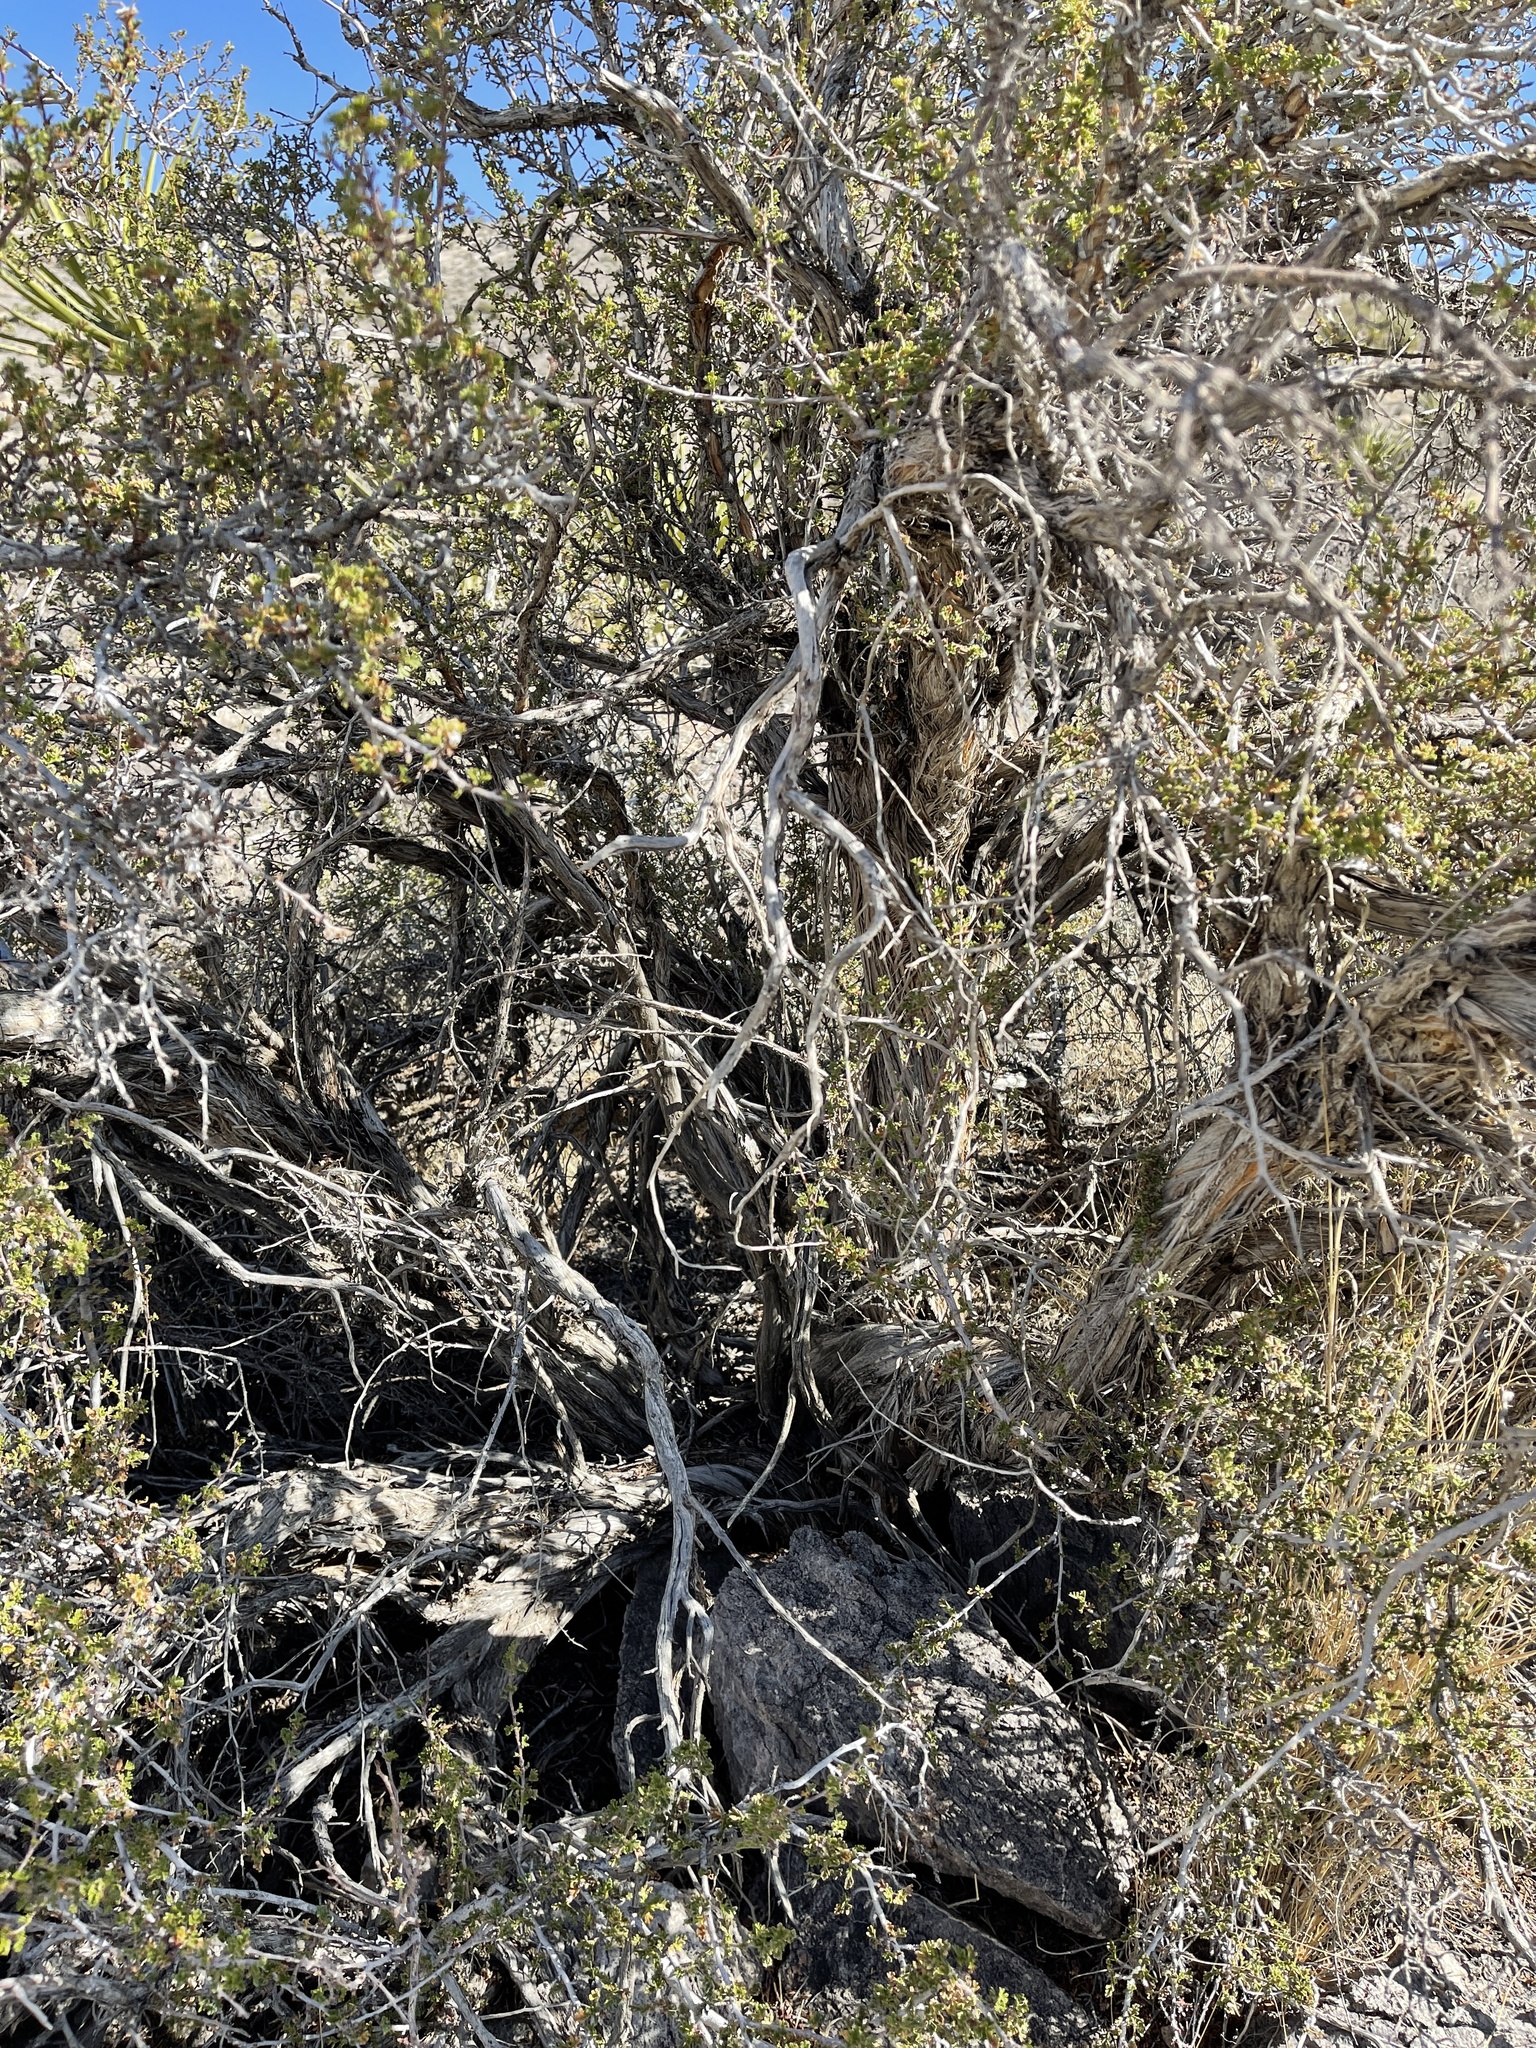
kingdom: Plantae
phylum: Tracheophyta
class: Magnoliopsida
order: Rosales
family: Rosaceae
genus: Purshia
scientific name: Purshia stansburiana
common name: Stansbury's cliffrose
